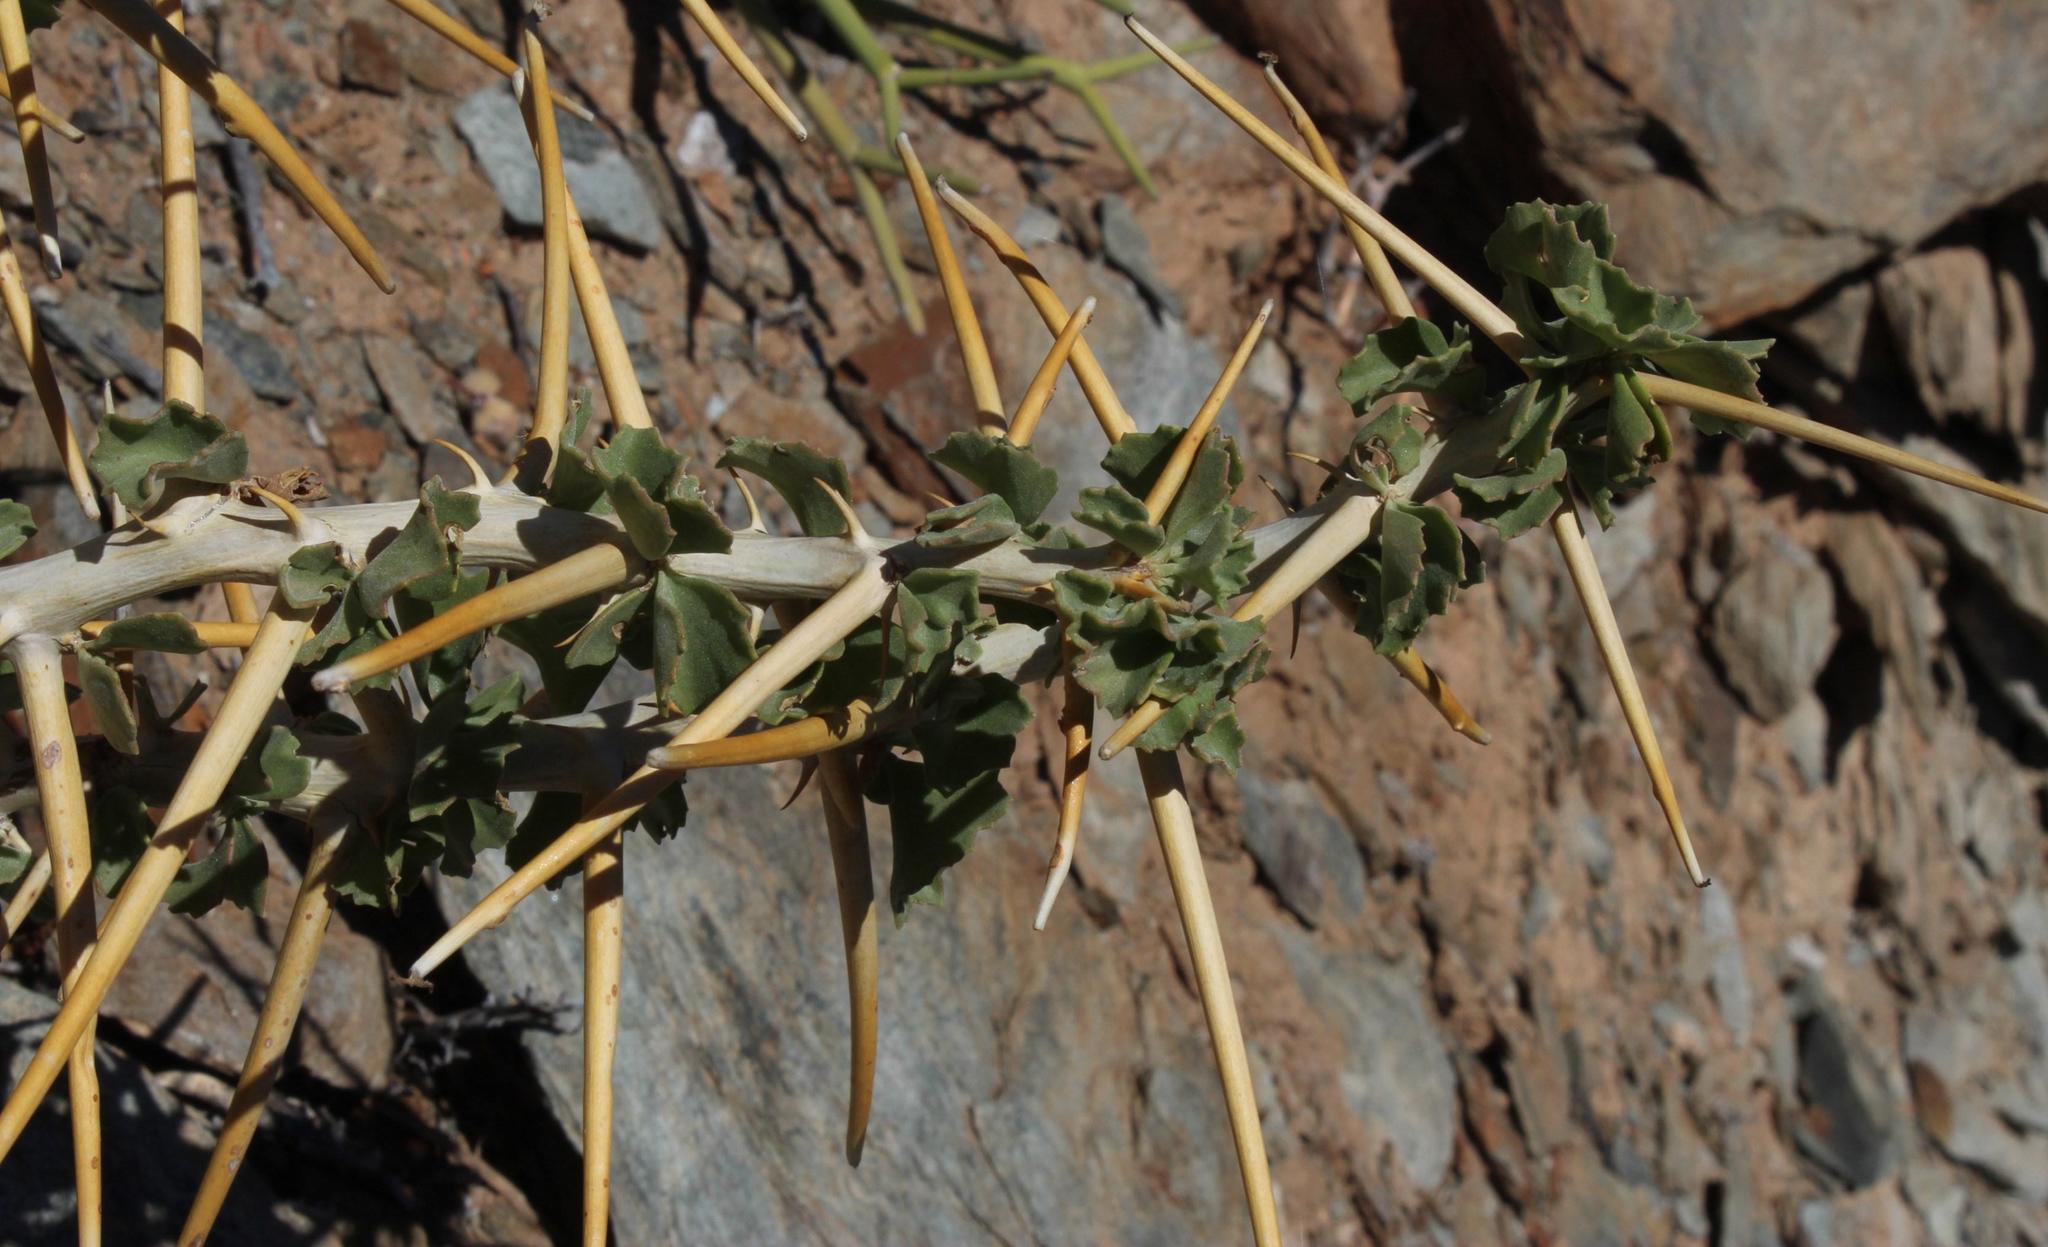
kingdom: Plantae
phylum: Tracheophyta
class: Magnoliopsida
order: Geraniales
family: Geraniaceae
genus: Pelargonium
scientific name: Pelargonium spinosum
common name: Thorny pelargonium
